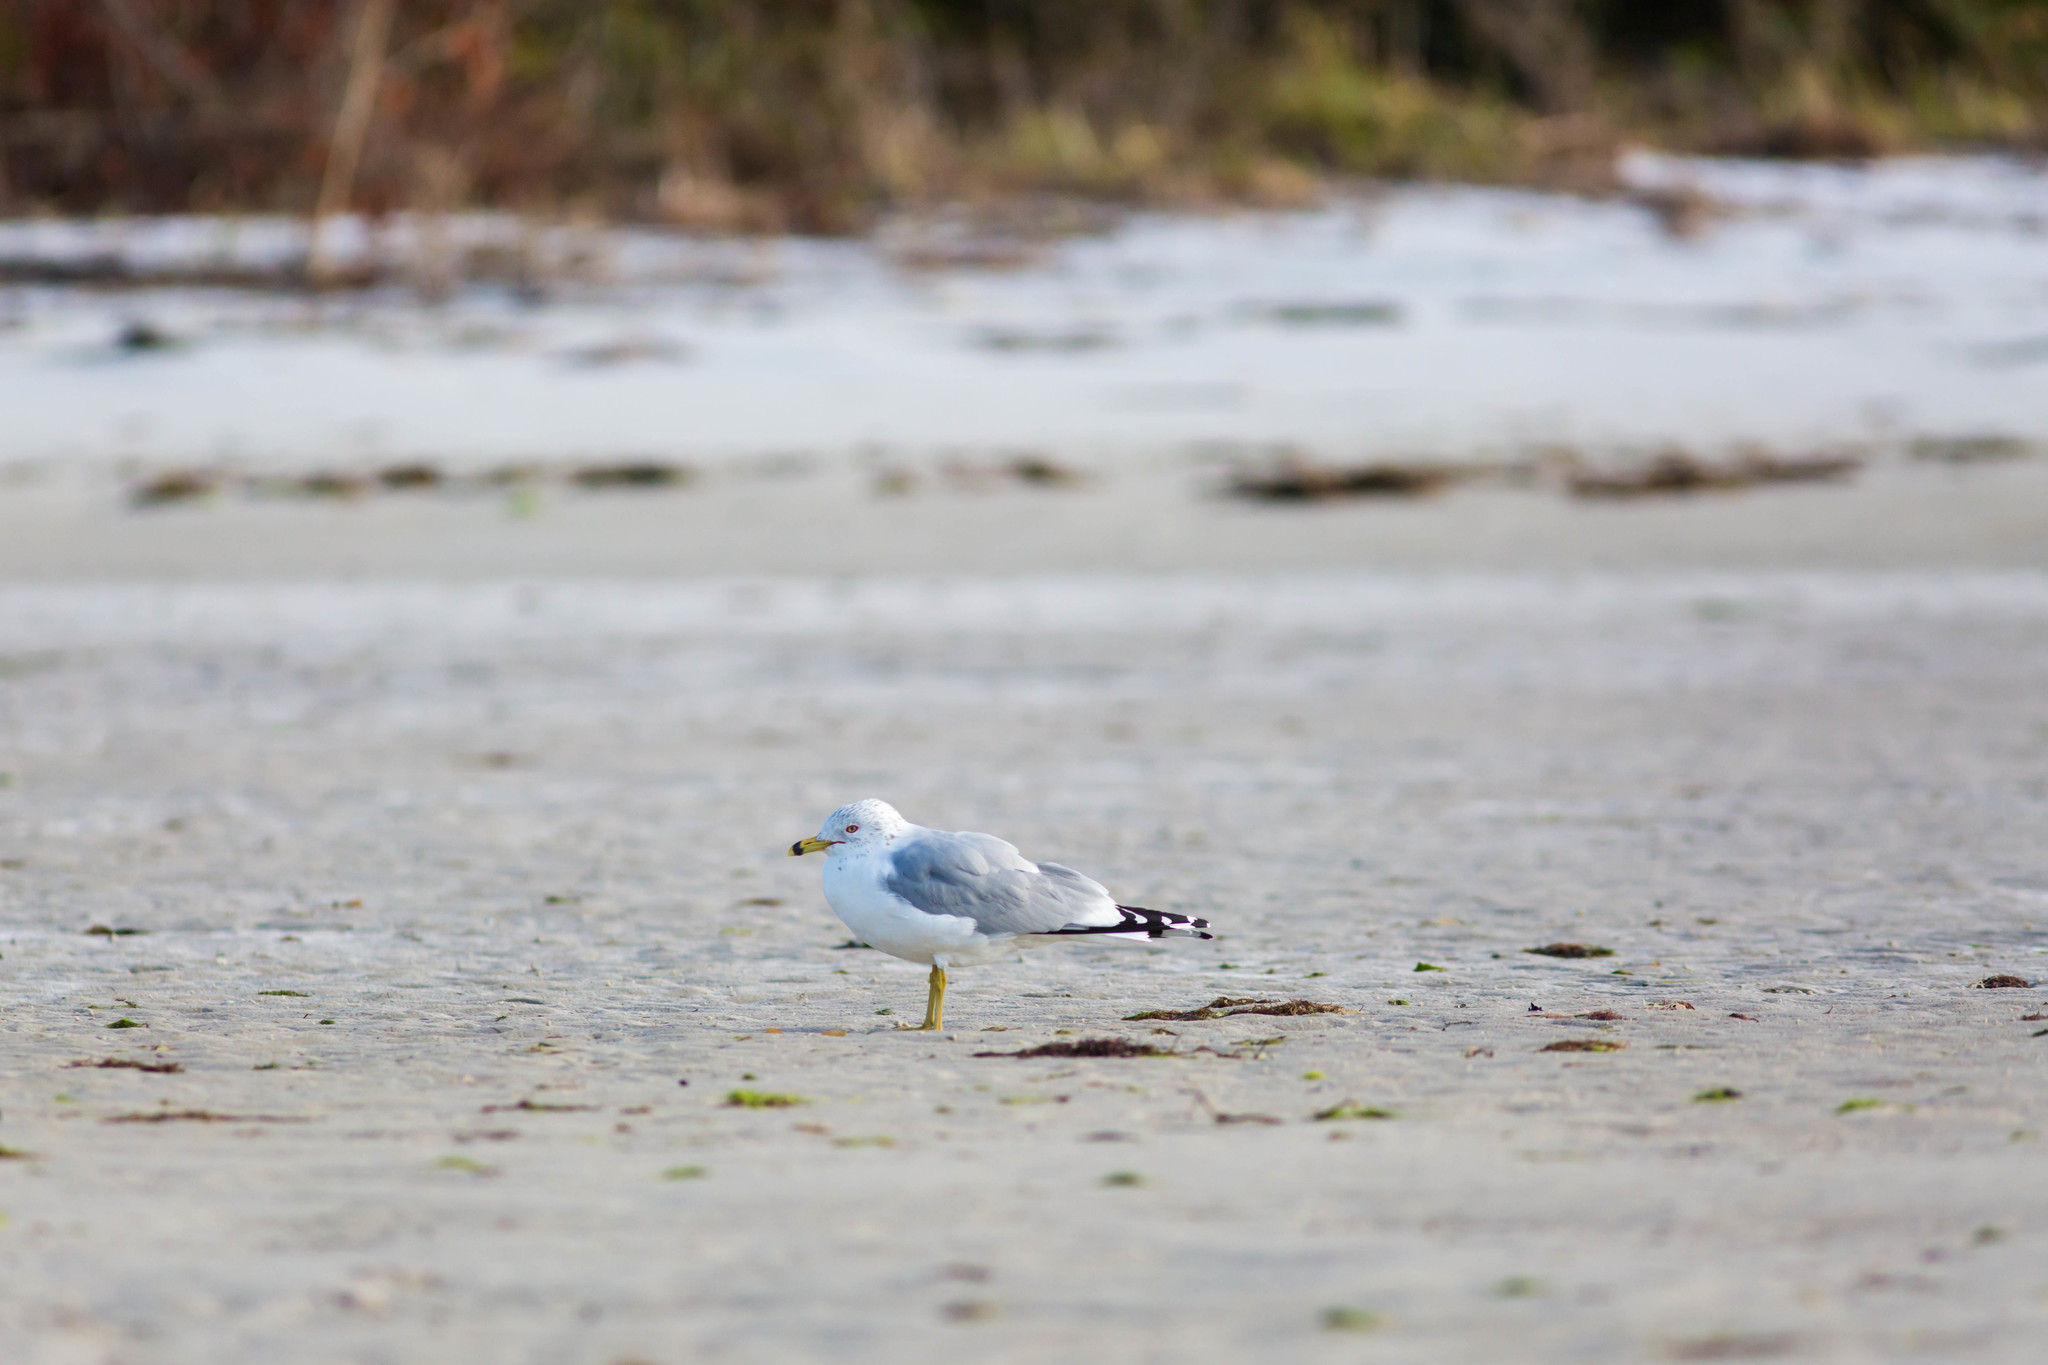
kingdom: Animalia
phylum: Chordata
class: Aves
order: Charadriiformes
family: Laridae
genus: Larus
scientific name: Larus delawarensis
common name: Ring-billed gull
